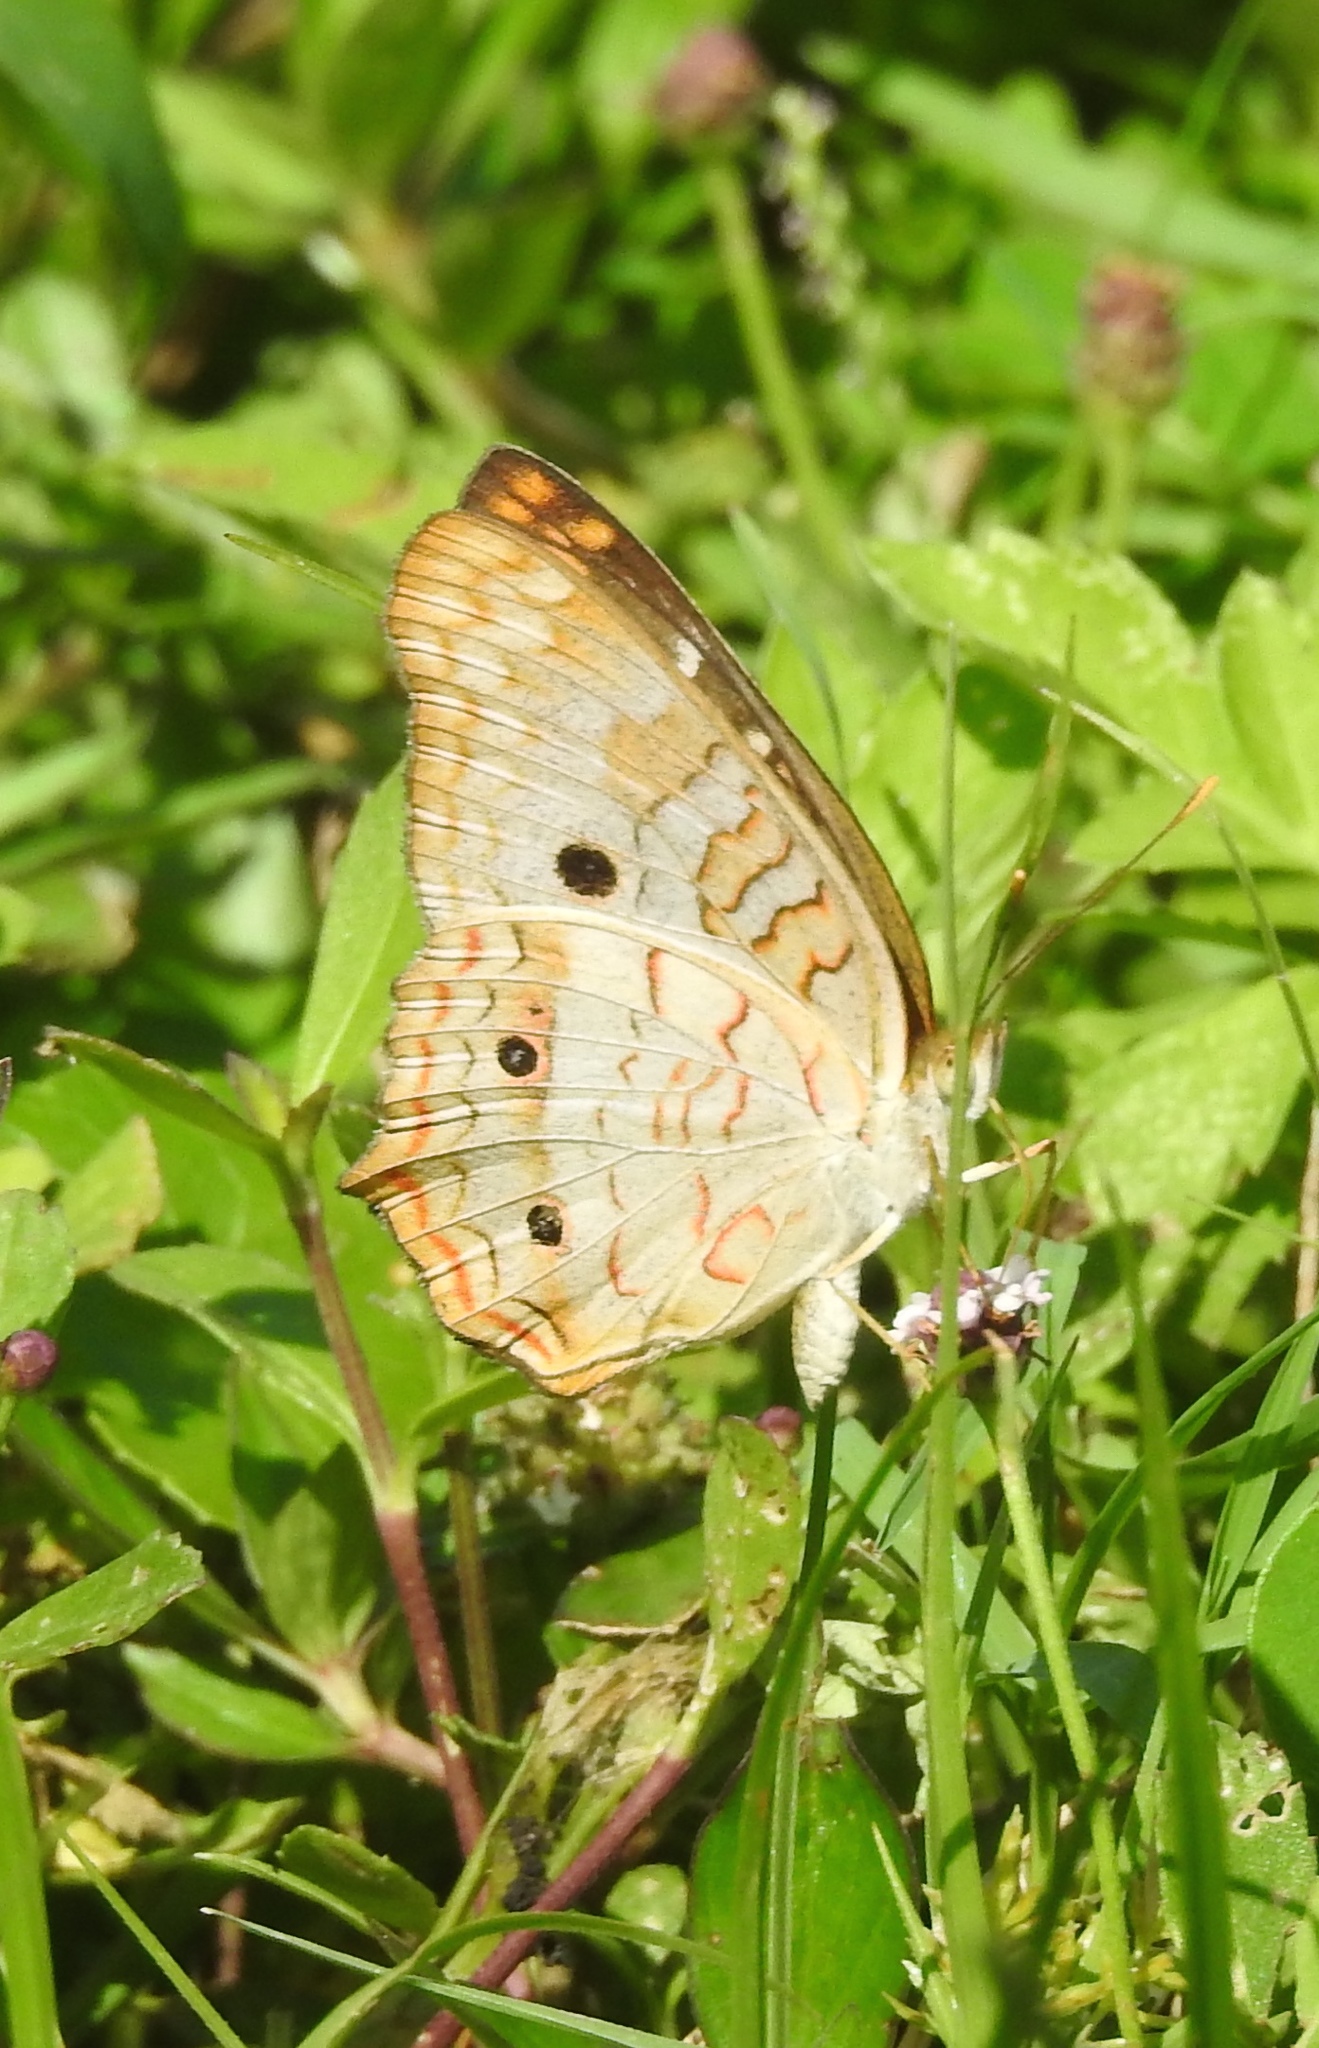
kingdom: Animalia
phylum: Arthropoda
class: Insecta
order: Lepidoptera
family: Nymphalidae
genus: Anartia
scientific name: Anartia jatrophae
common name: White peacock
